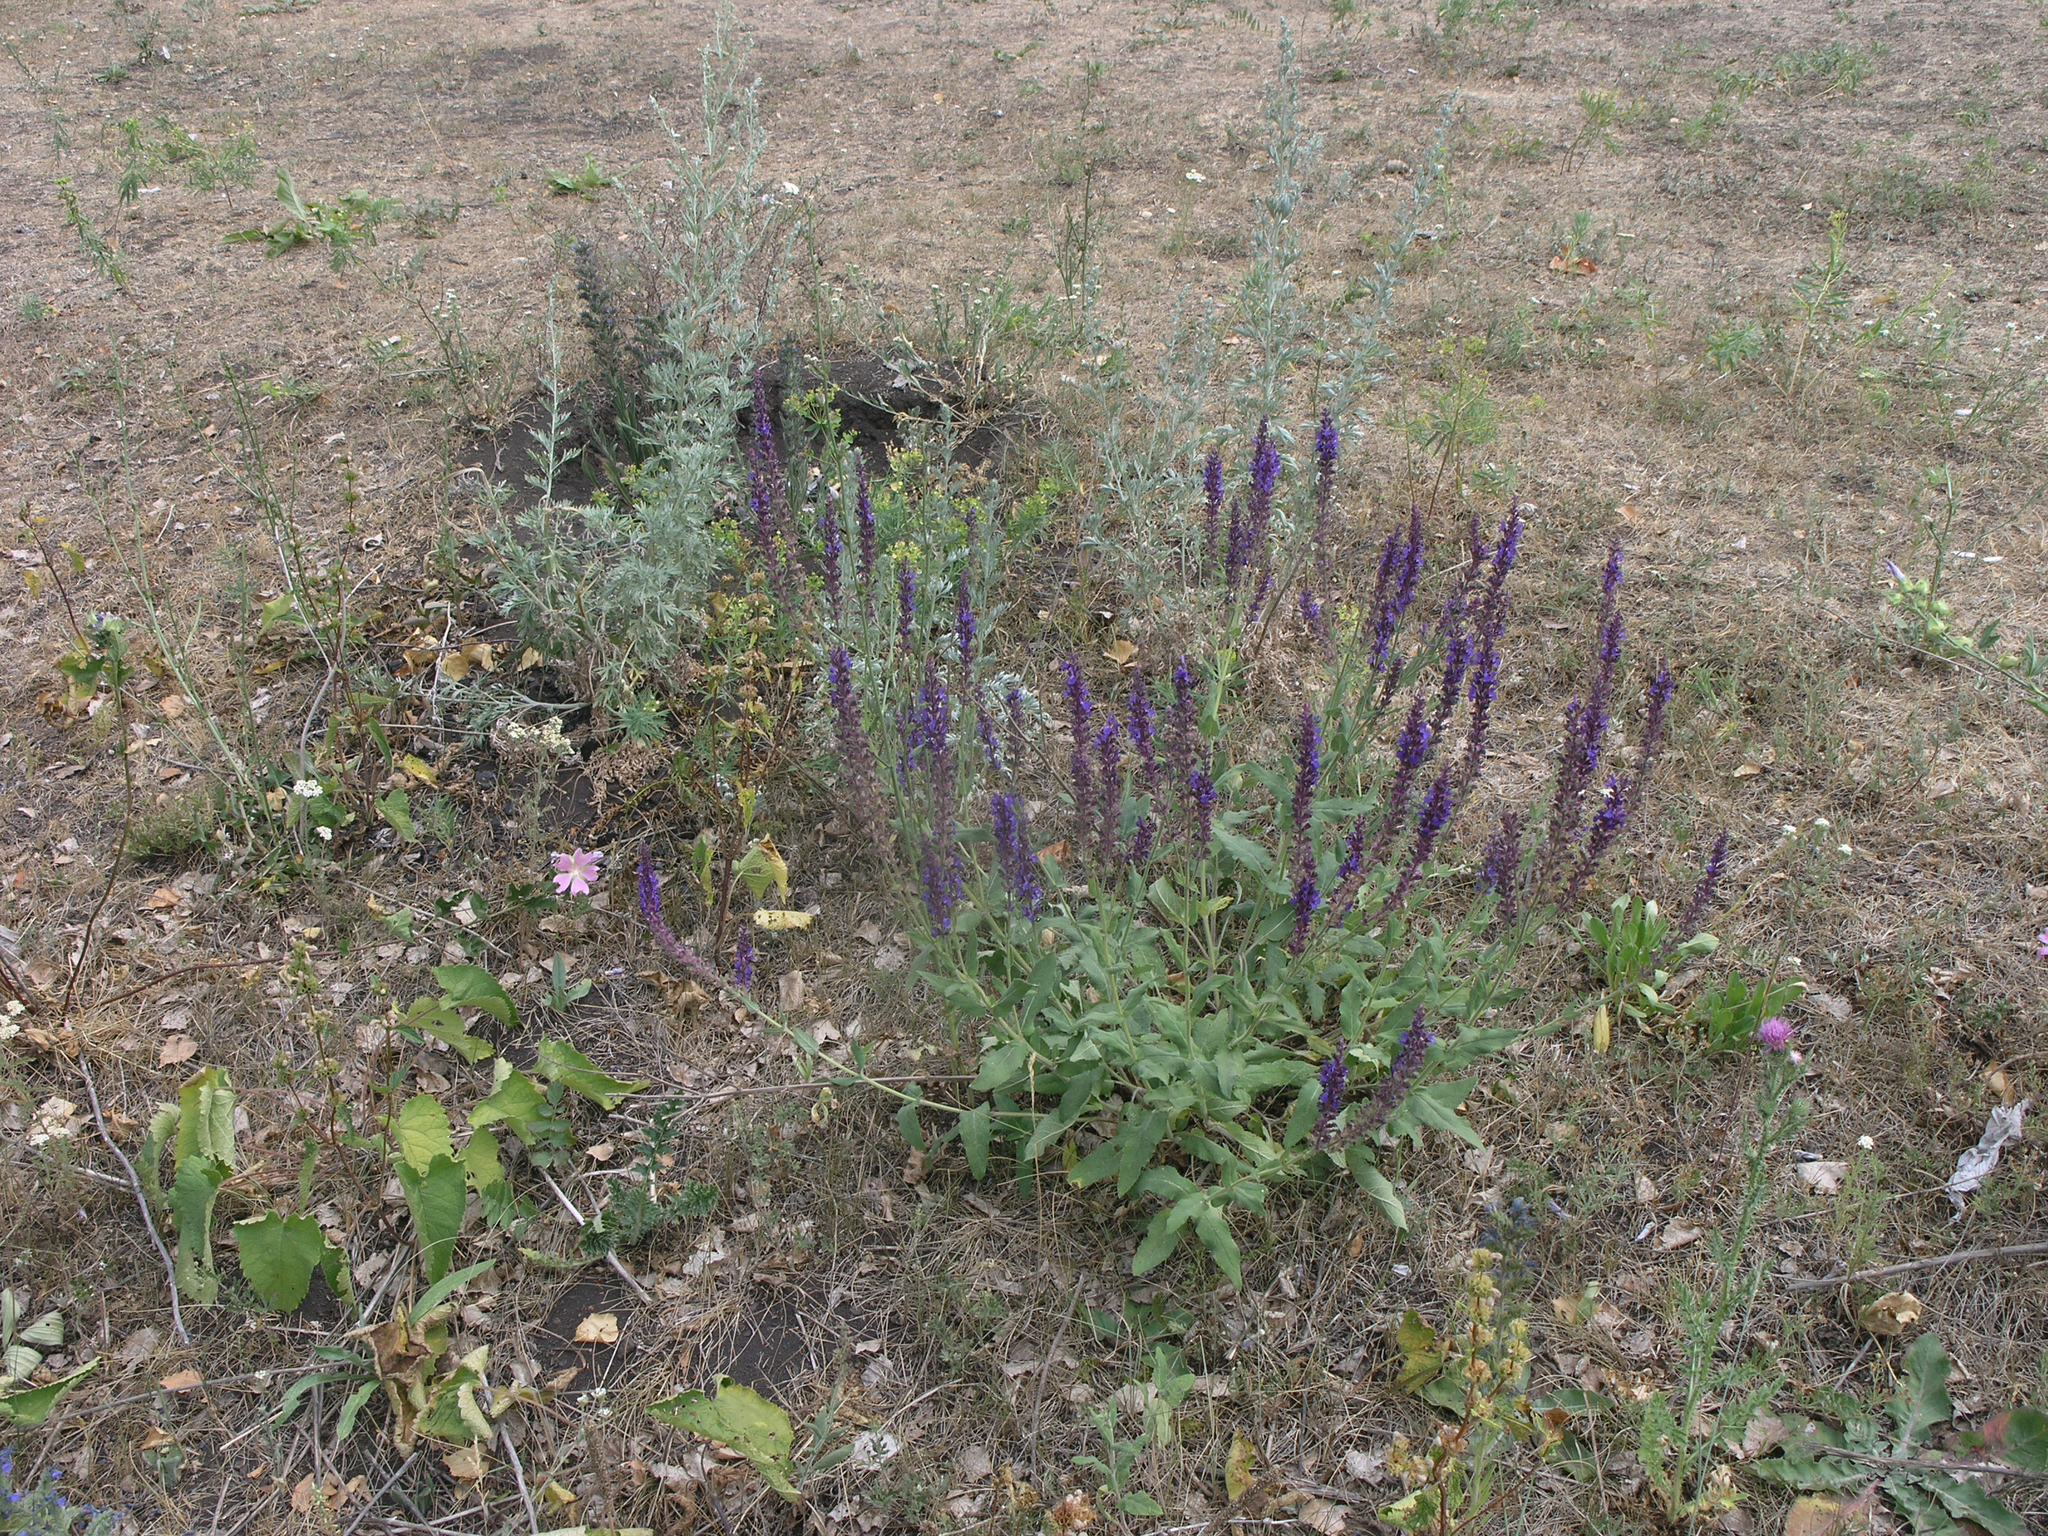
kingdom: Plantae
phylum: Tracheophyta
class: Magnoliopsida
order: Lamiales
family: Lamiaceae
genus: Salvia
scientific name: Salvia nemorosa
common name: Balkan clary
